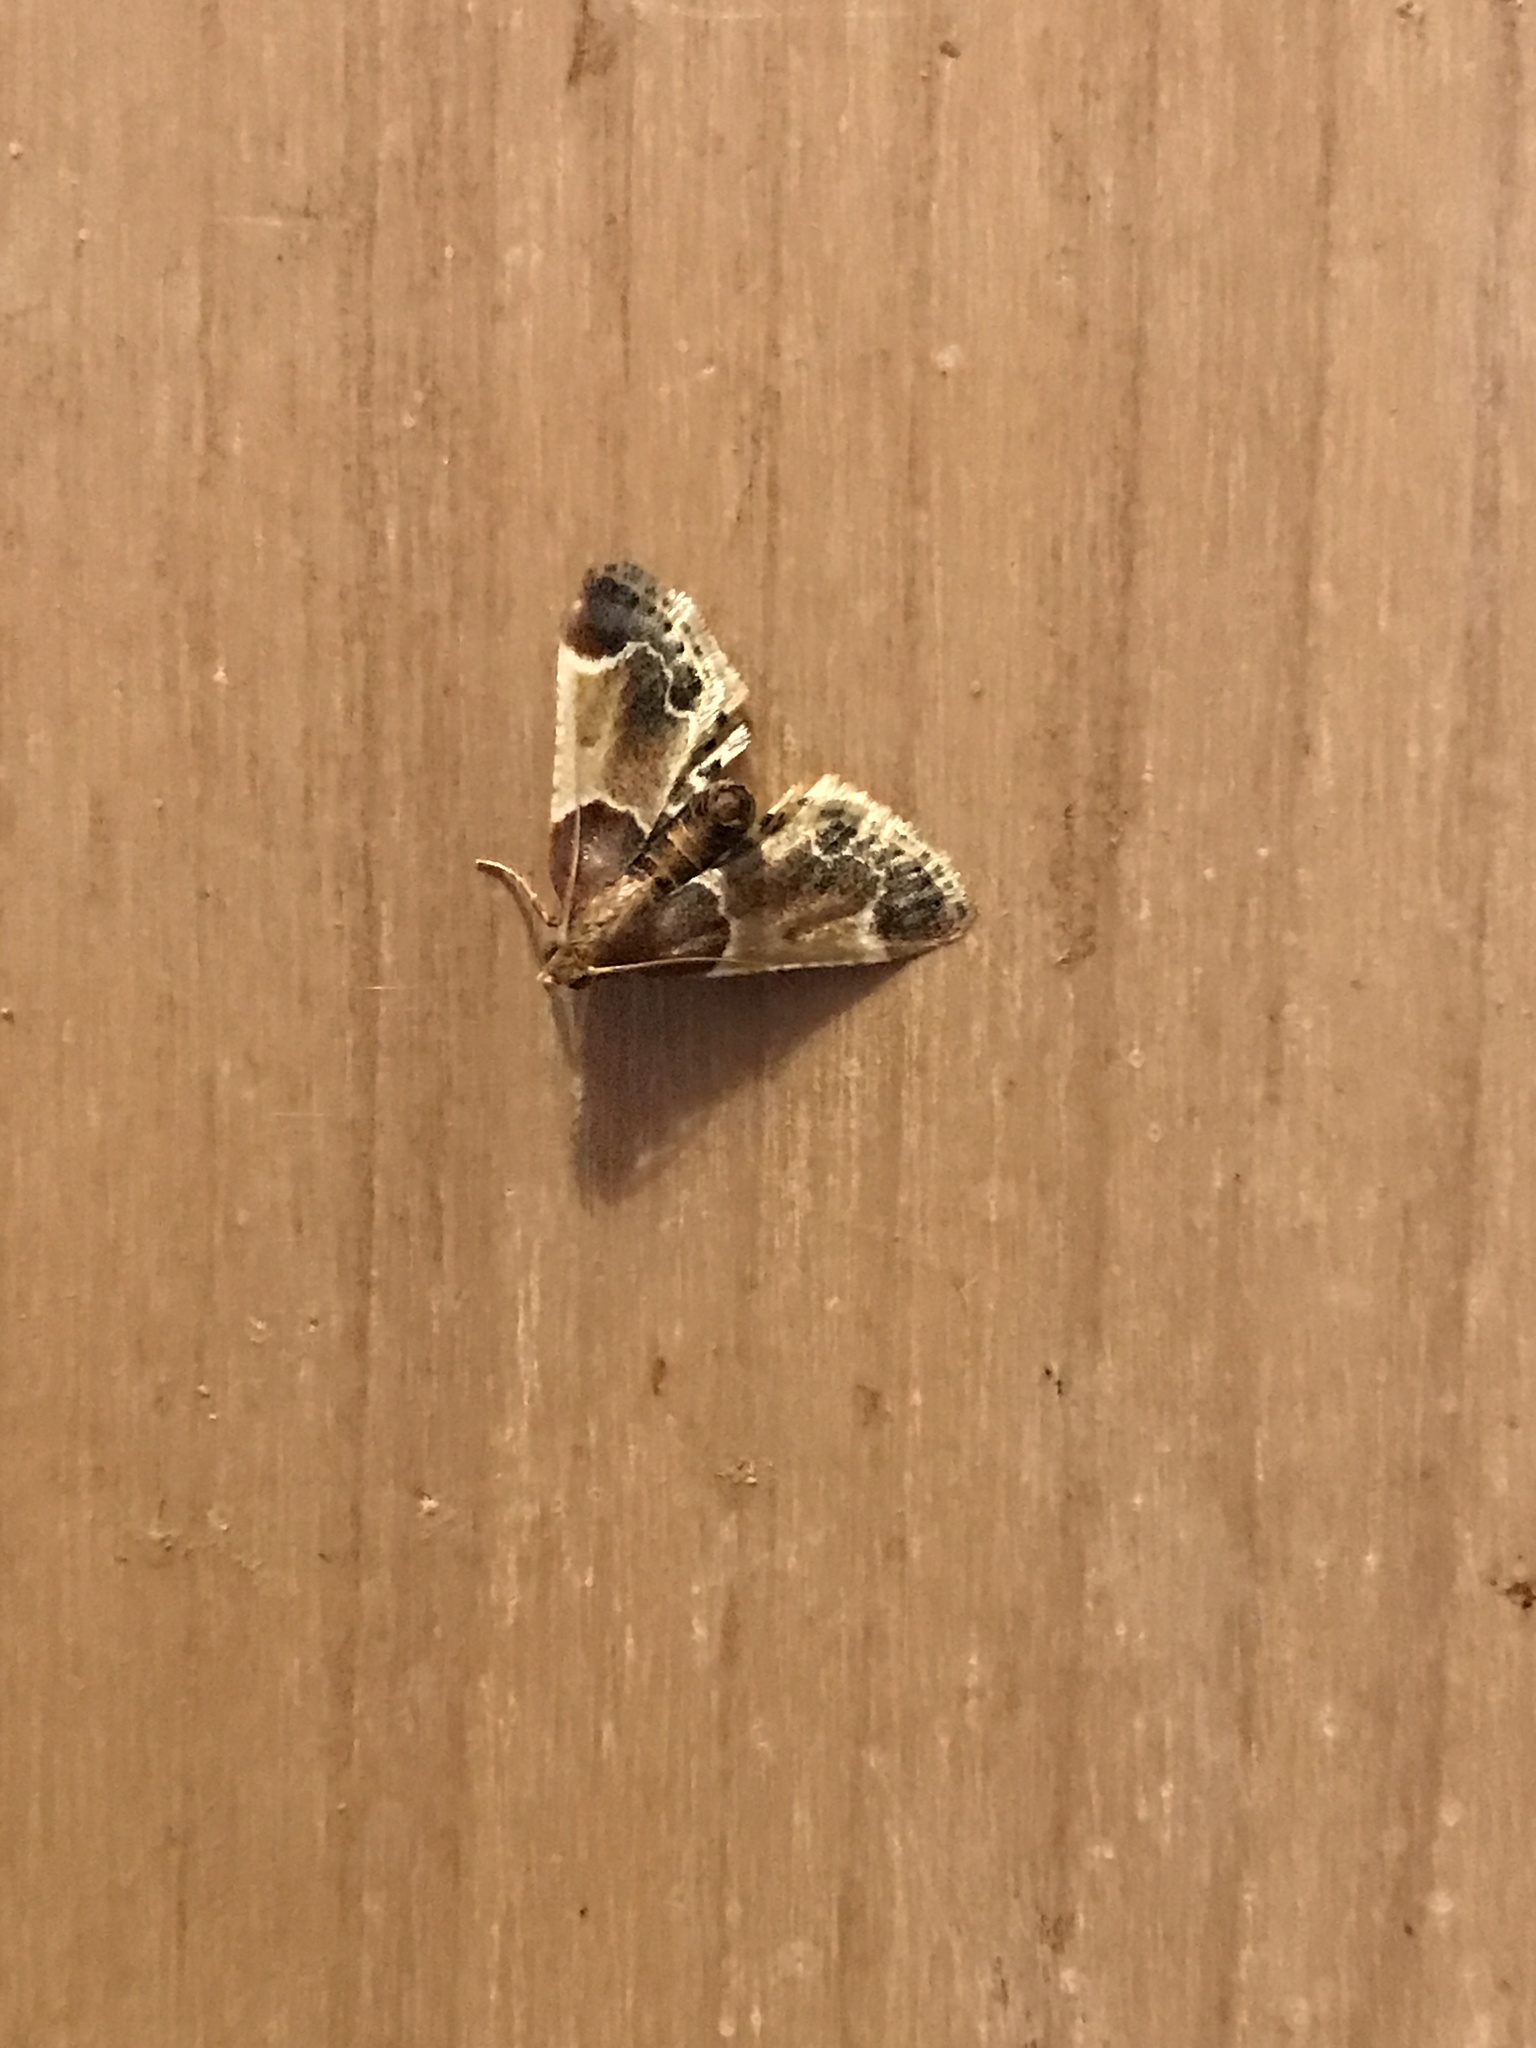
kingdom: Animalia
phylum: Arthropoda
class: Insecta
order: Lepidoptera
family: Pyralidae
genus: Pyralis
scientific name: Pyralis farinalis
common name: Meal moth
